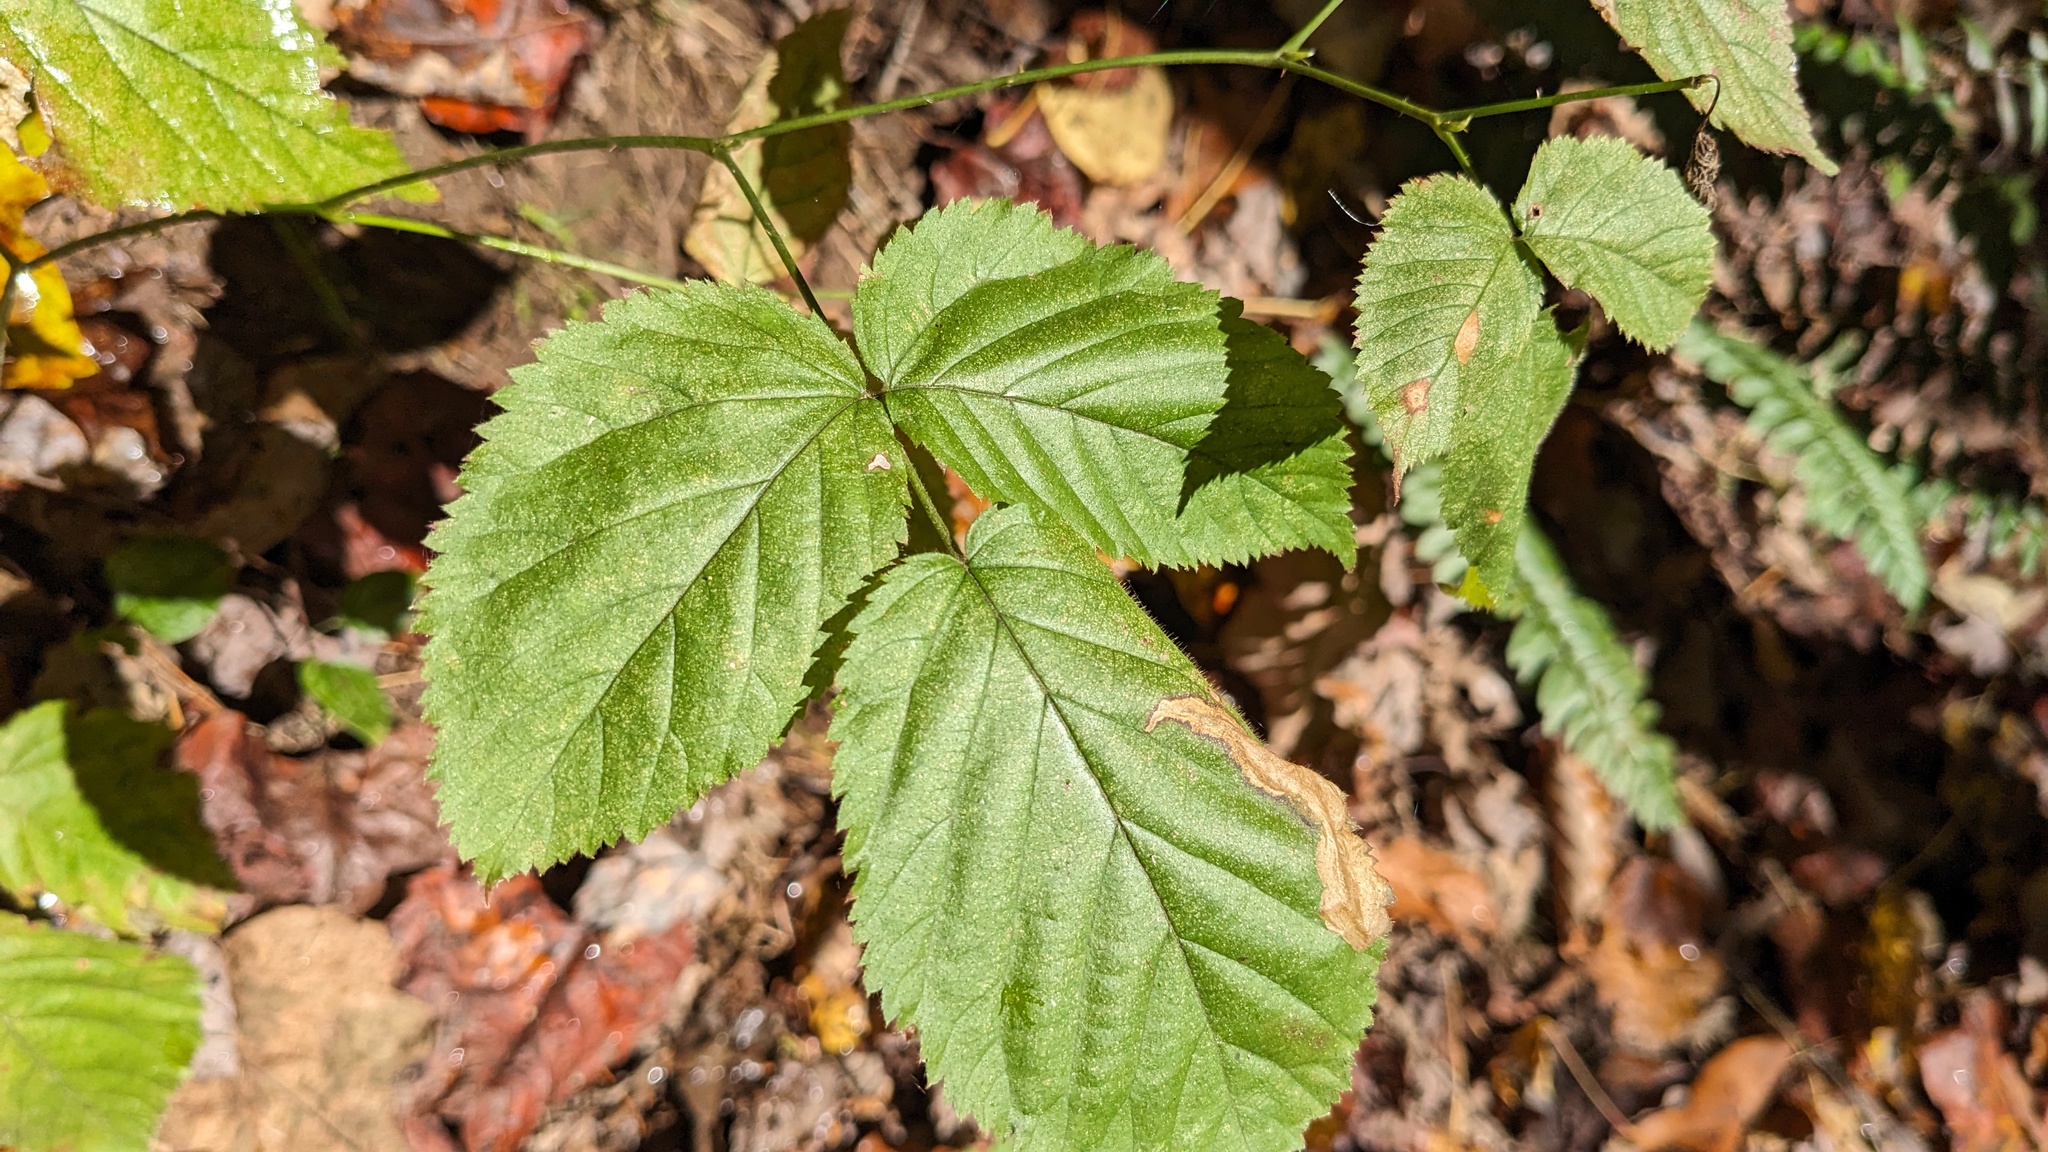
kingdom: Animalia
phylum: Arthropoda
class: Insecta
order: Hymenoptera
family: Tenthredinidae
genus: Metallus
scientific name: Metallus rohweri
